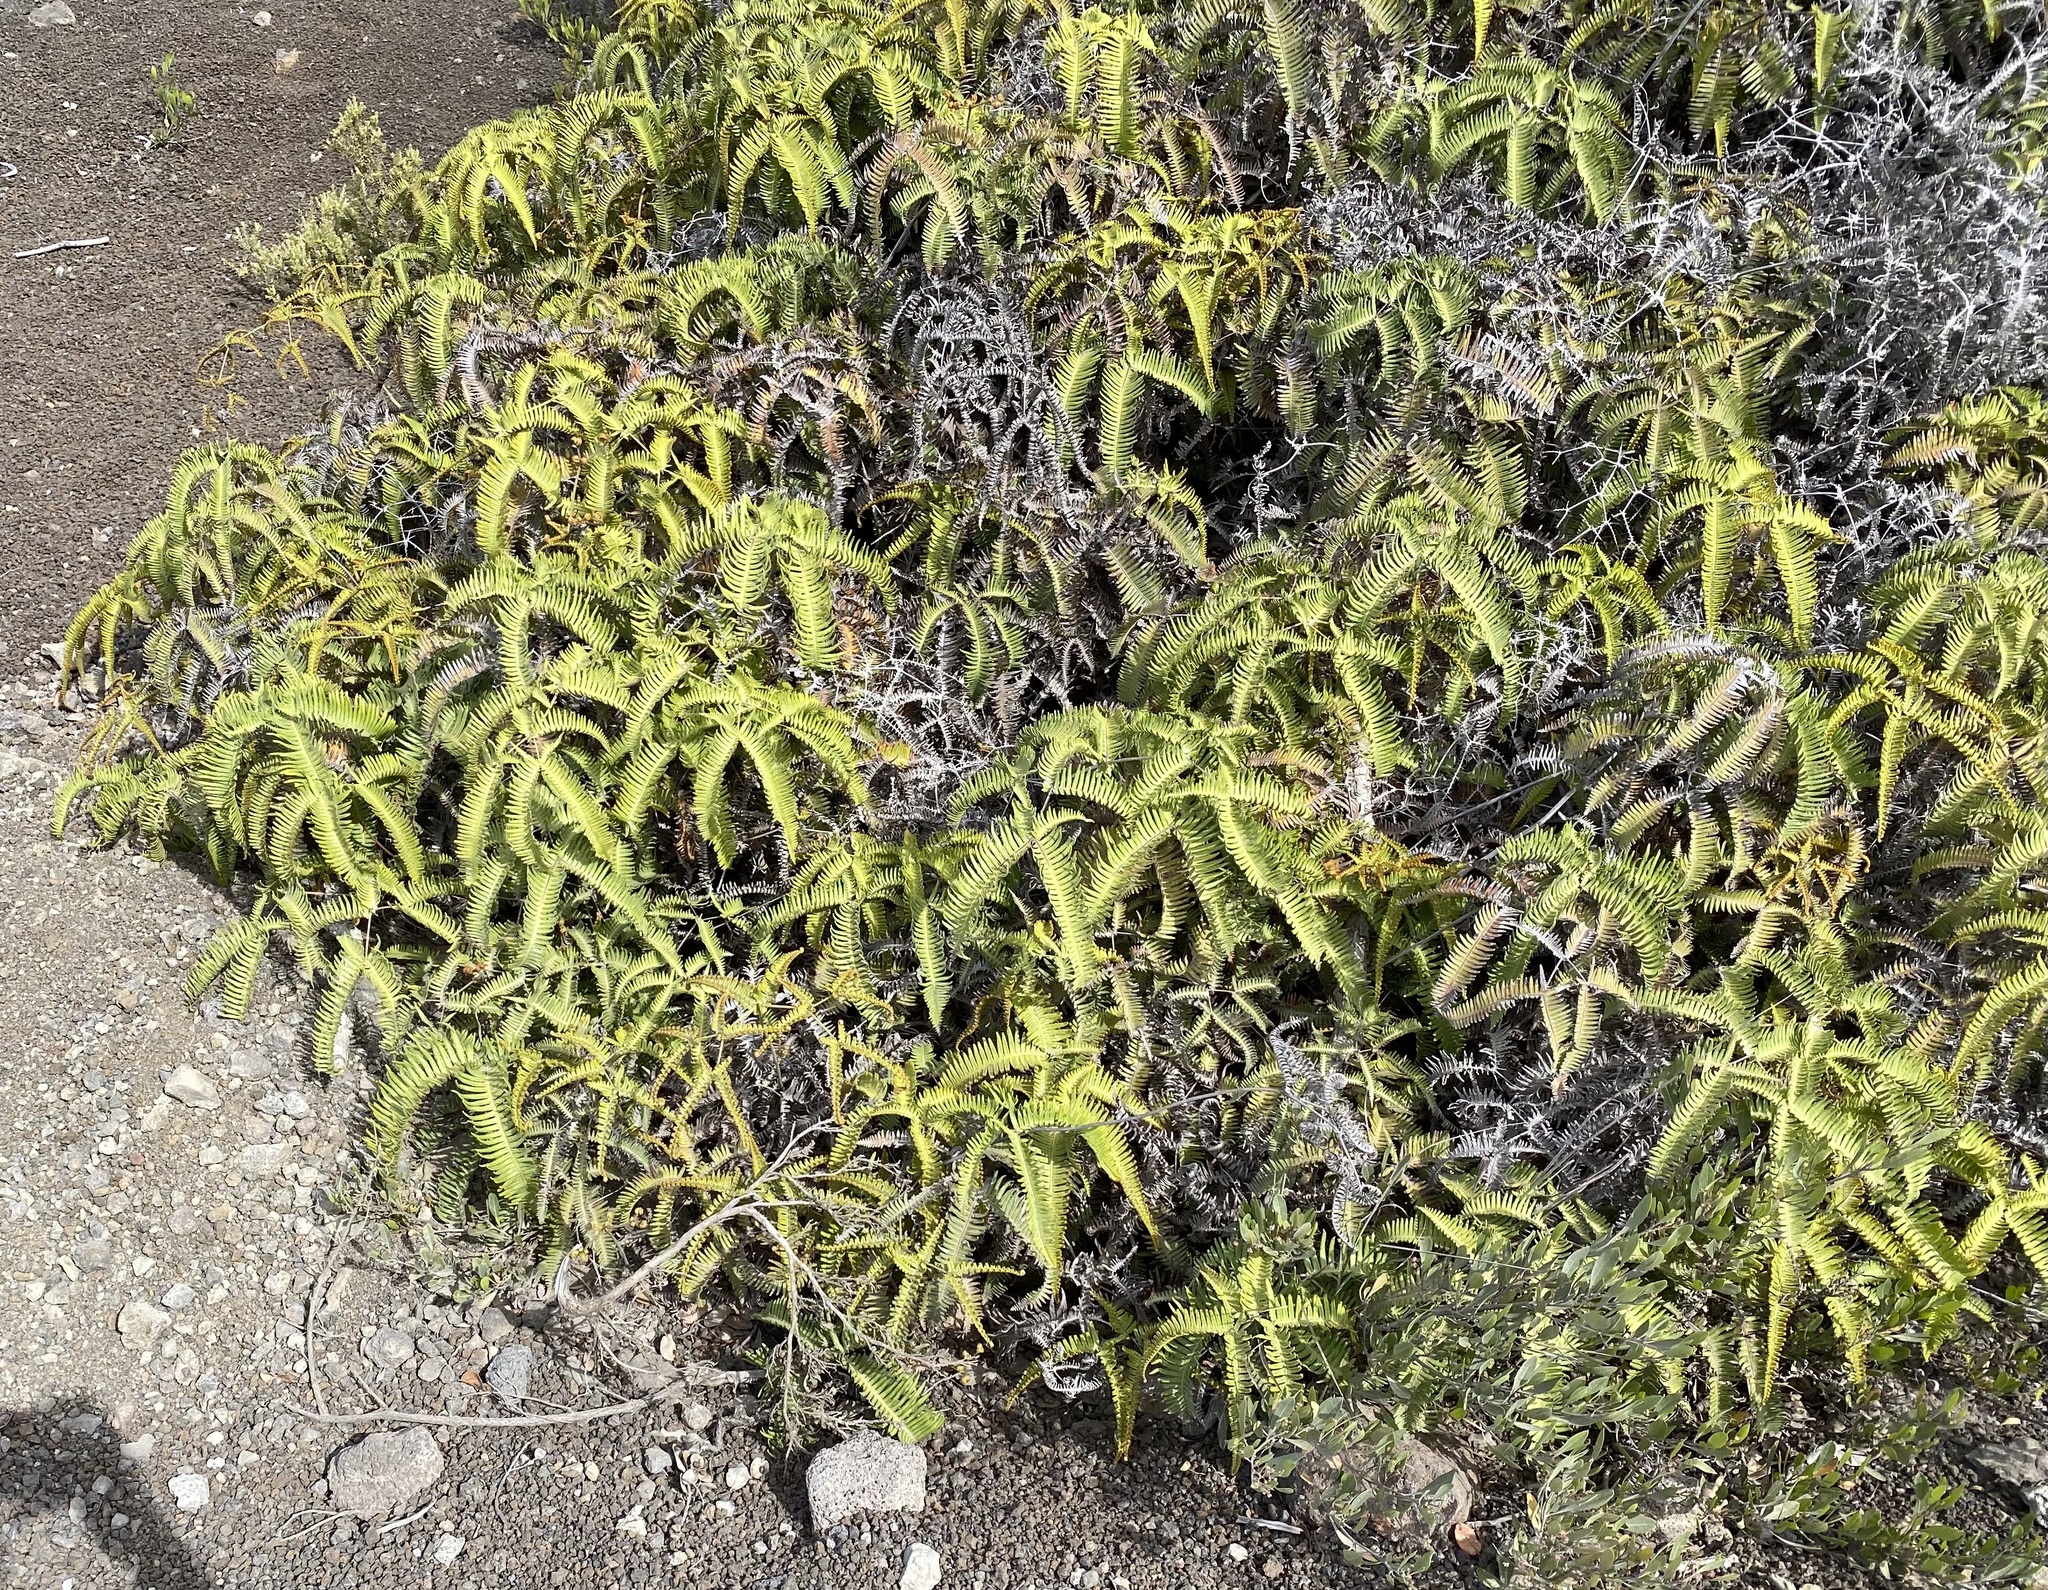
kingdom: Plantae
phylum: Tracheophyta
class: Polypodiopsida
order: Gleicheniales
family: Gleicheniaceae
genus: Dicranopteris
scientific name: Dicranopteris linearis
